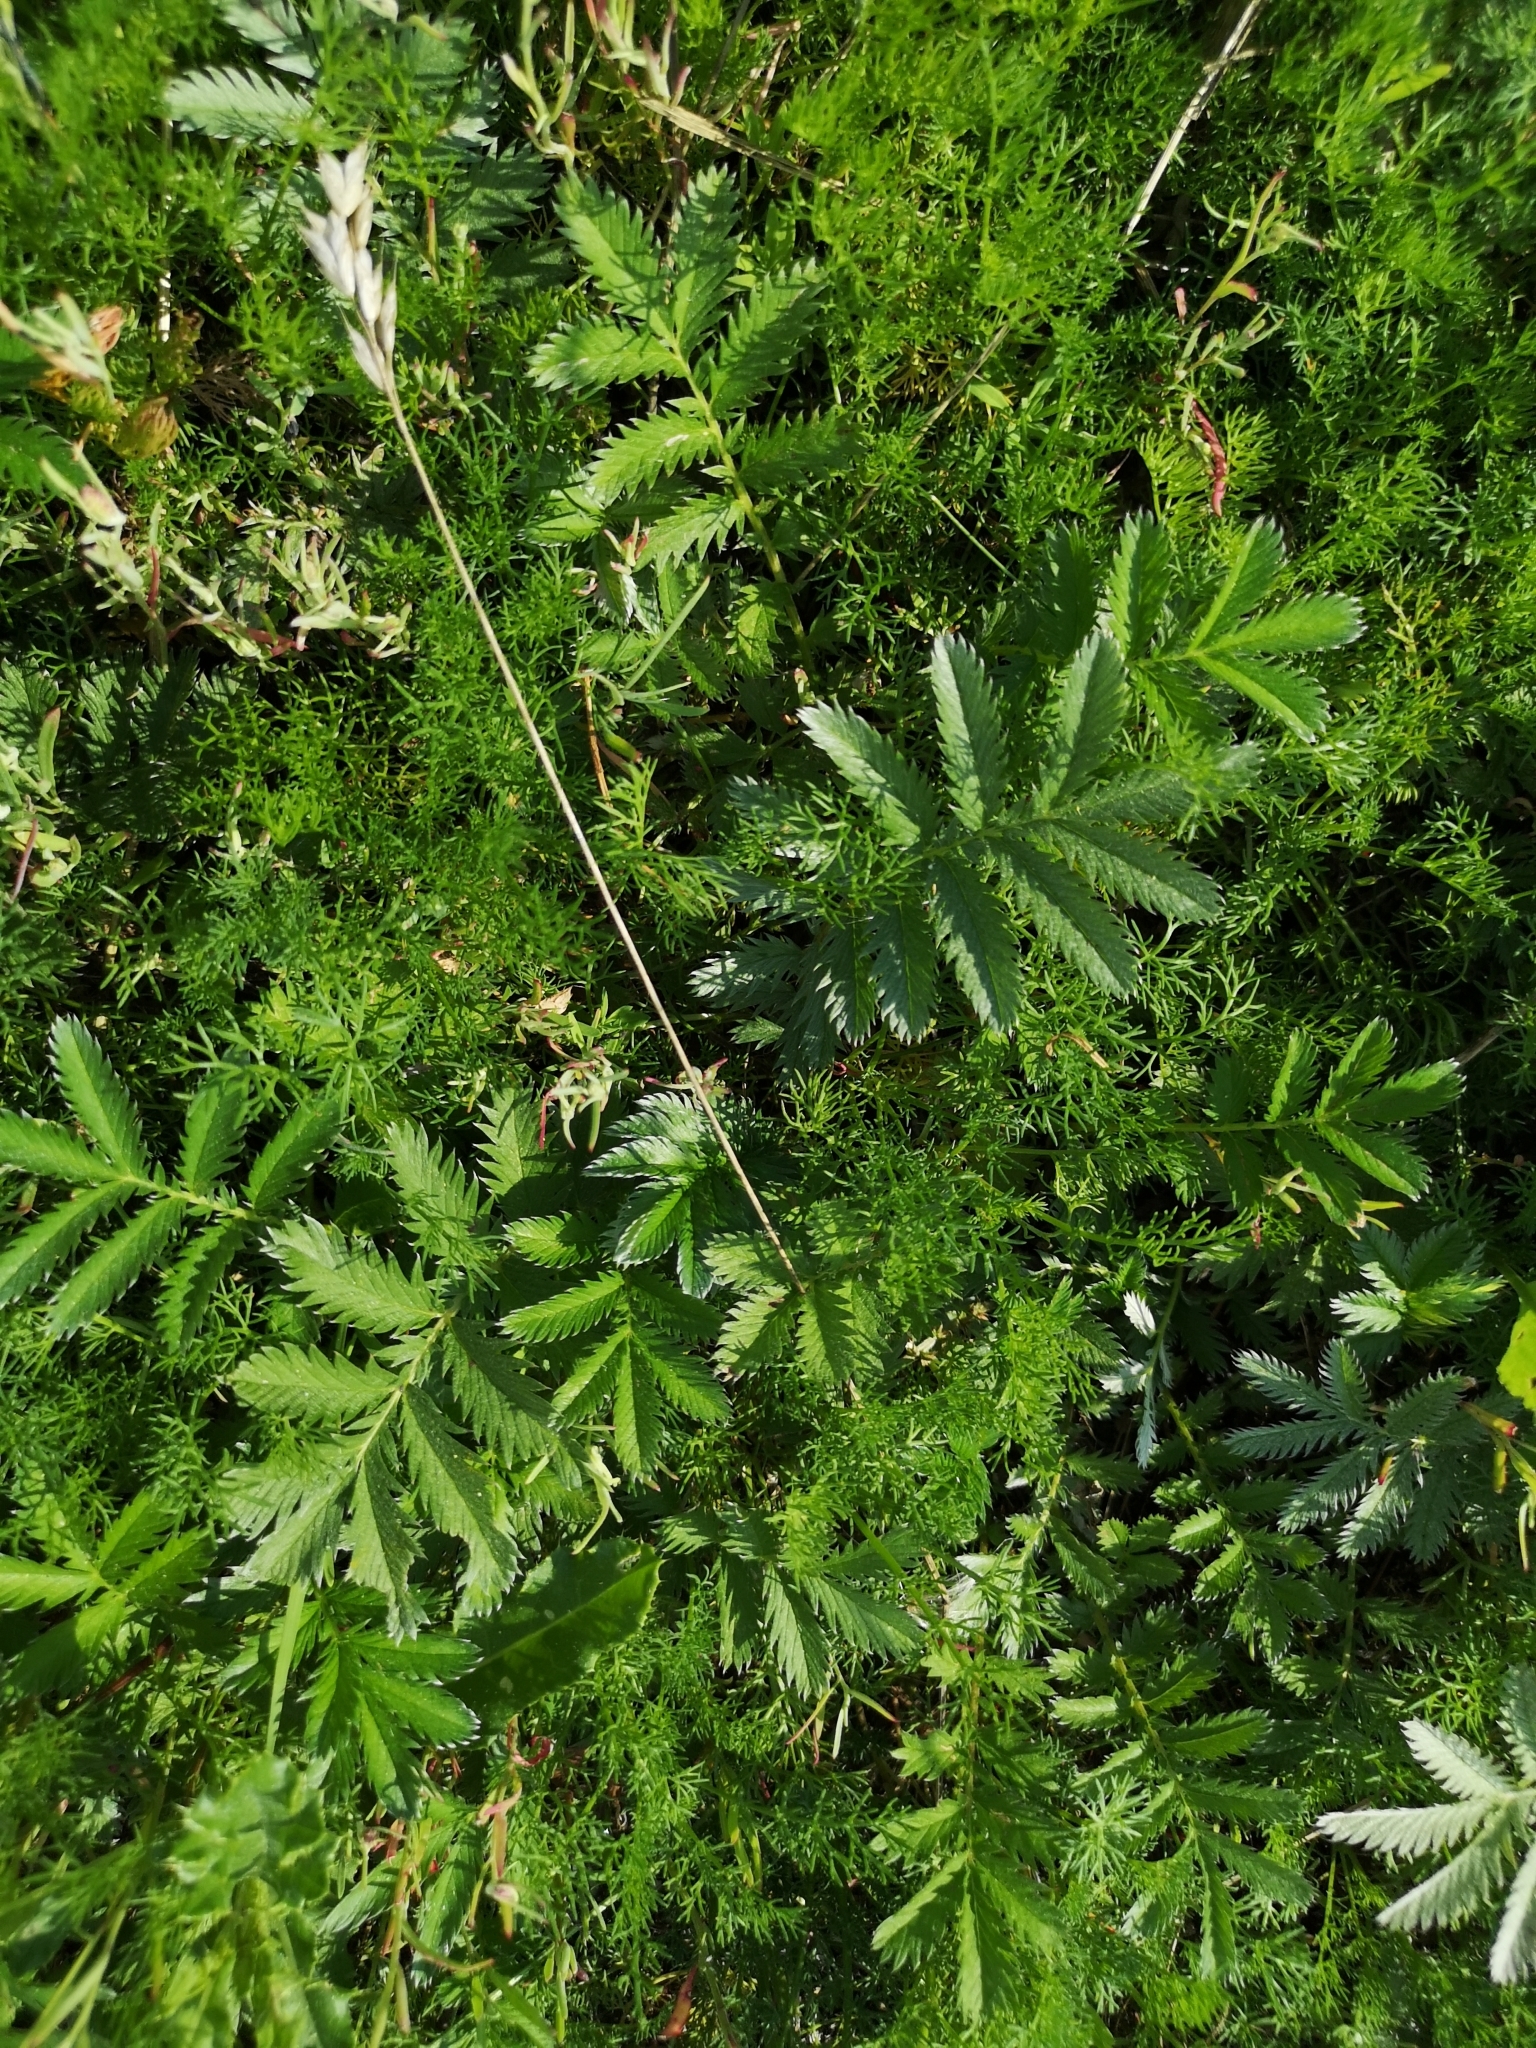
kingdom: Plantae
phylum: Tracheophyta
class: Magnoliopsida
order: Rosales
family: Rosaceae
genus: Argentina
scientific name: Argentina anserina
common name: Common silverweed
